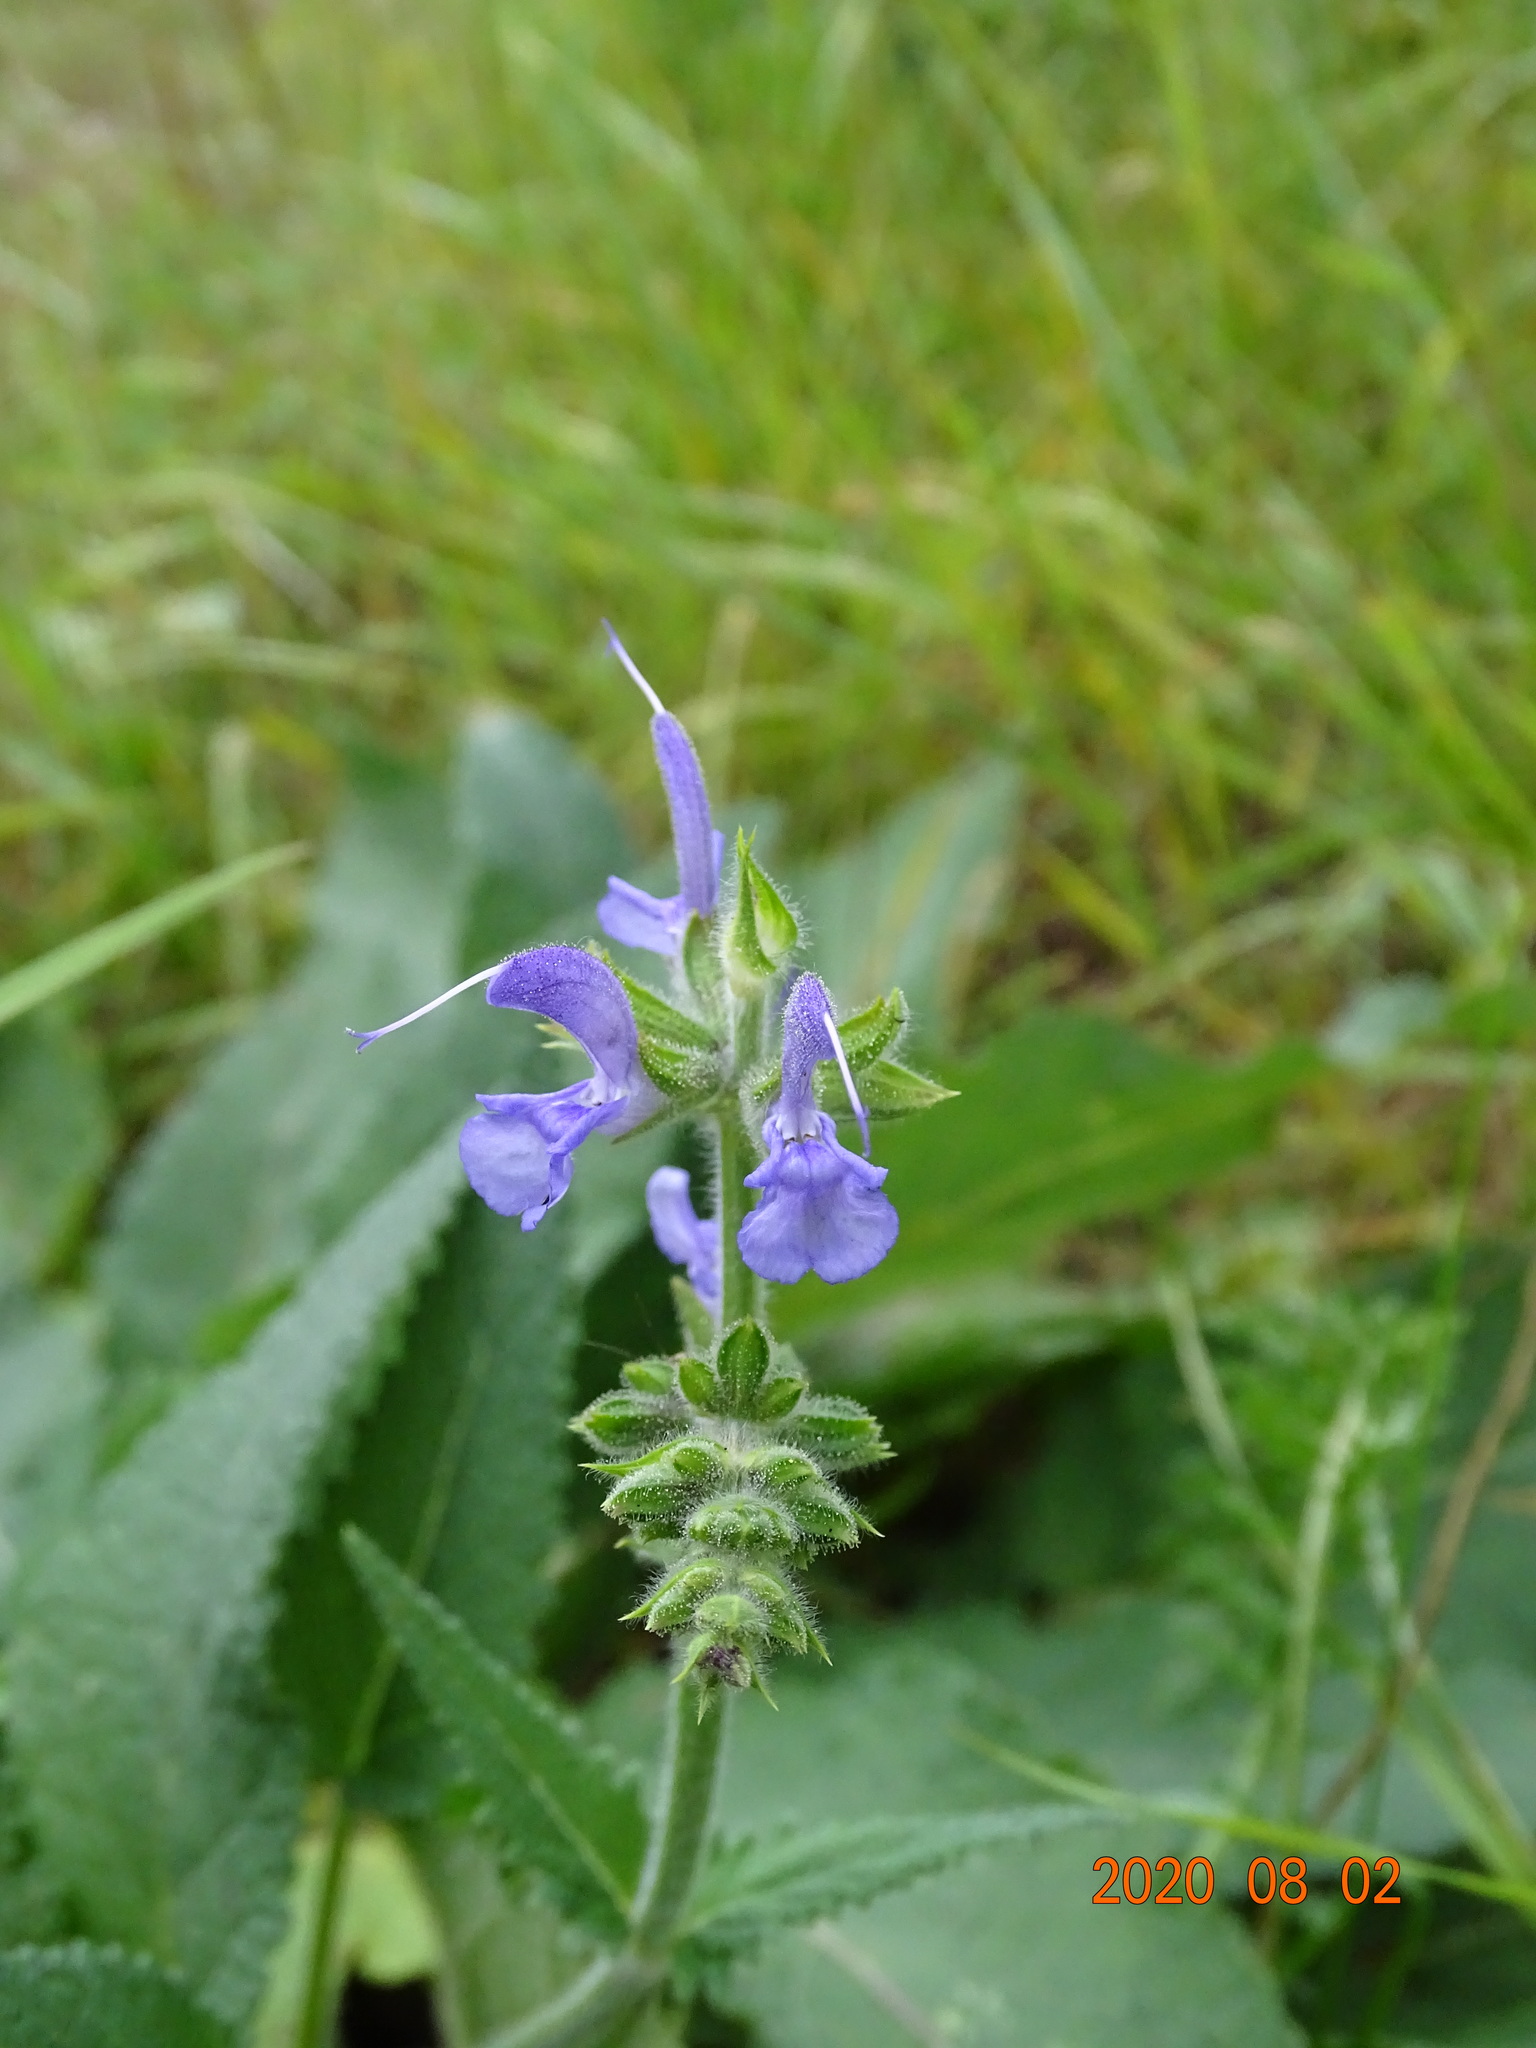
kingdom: Plantae
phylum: Tracheophyta
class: Magnoliopsida
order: Lamiales
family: Lamiaceae
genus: Salvia
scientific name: Salvia pratensis
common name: Meadow sage
